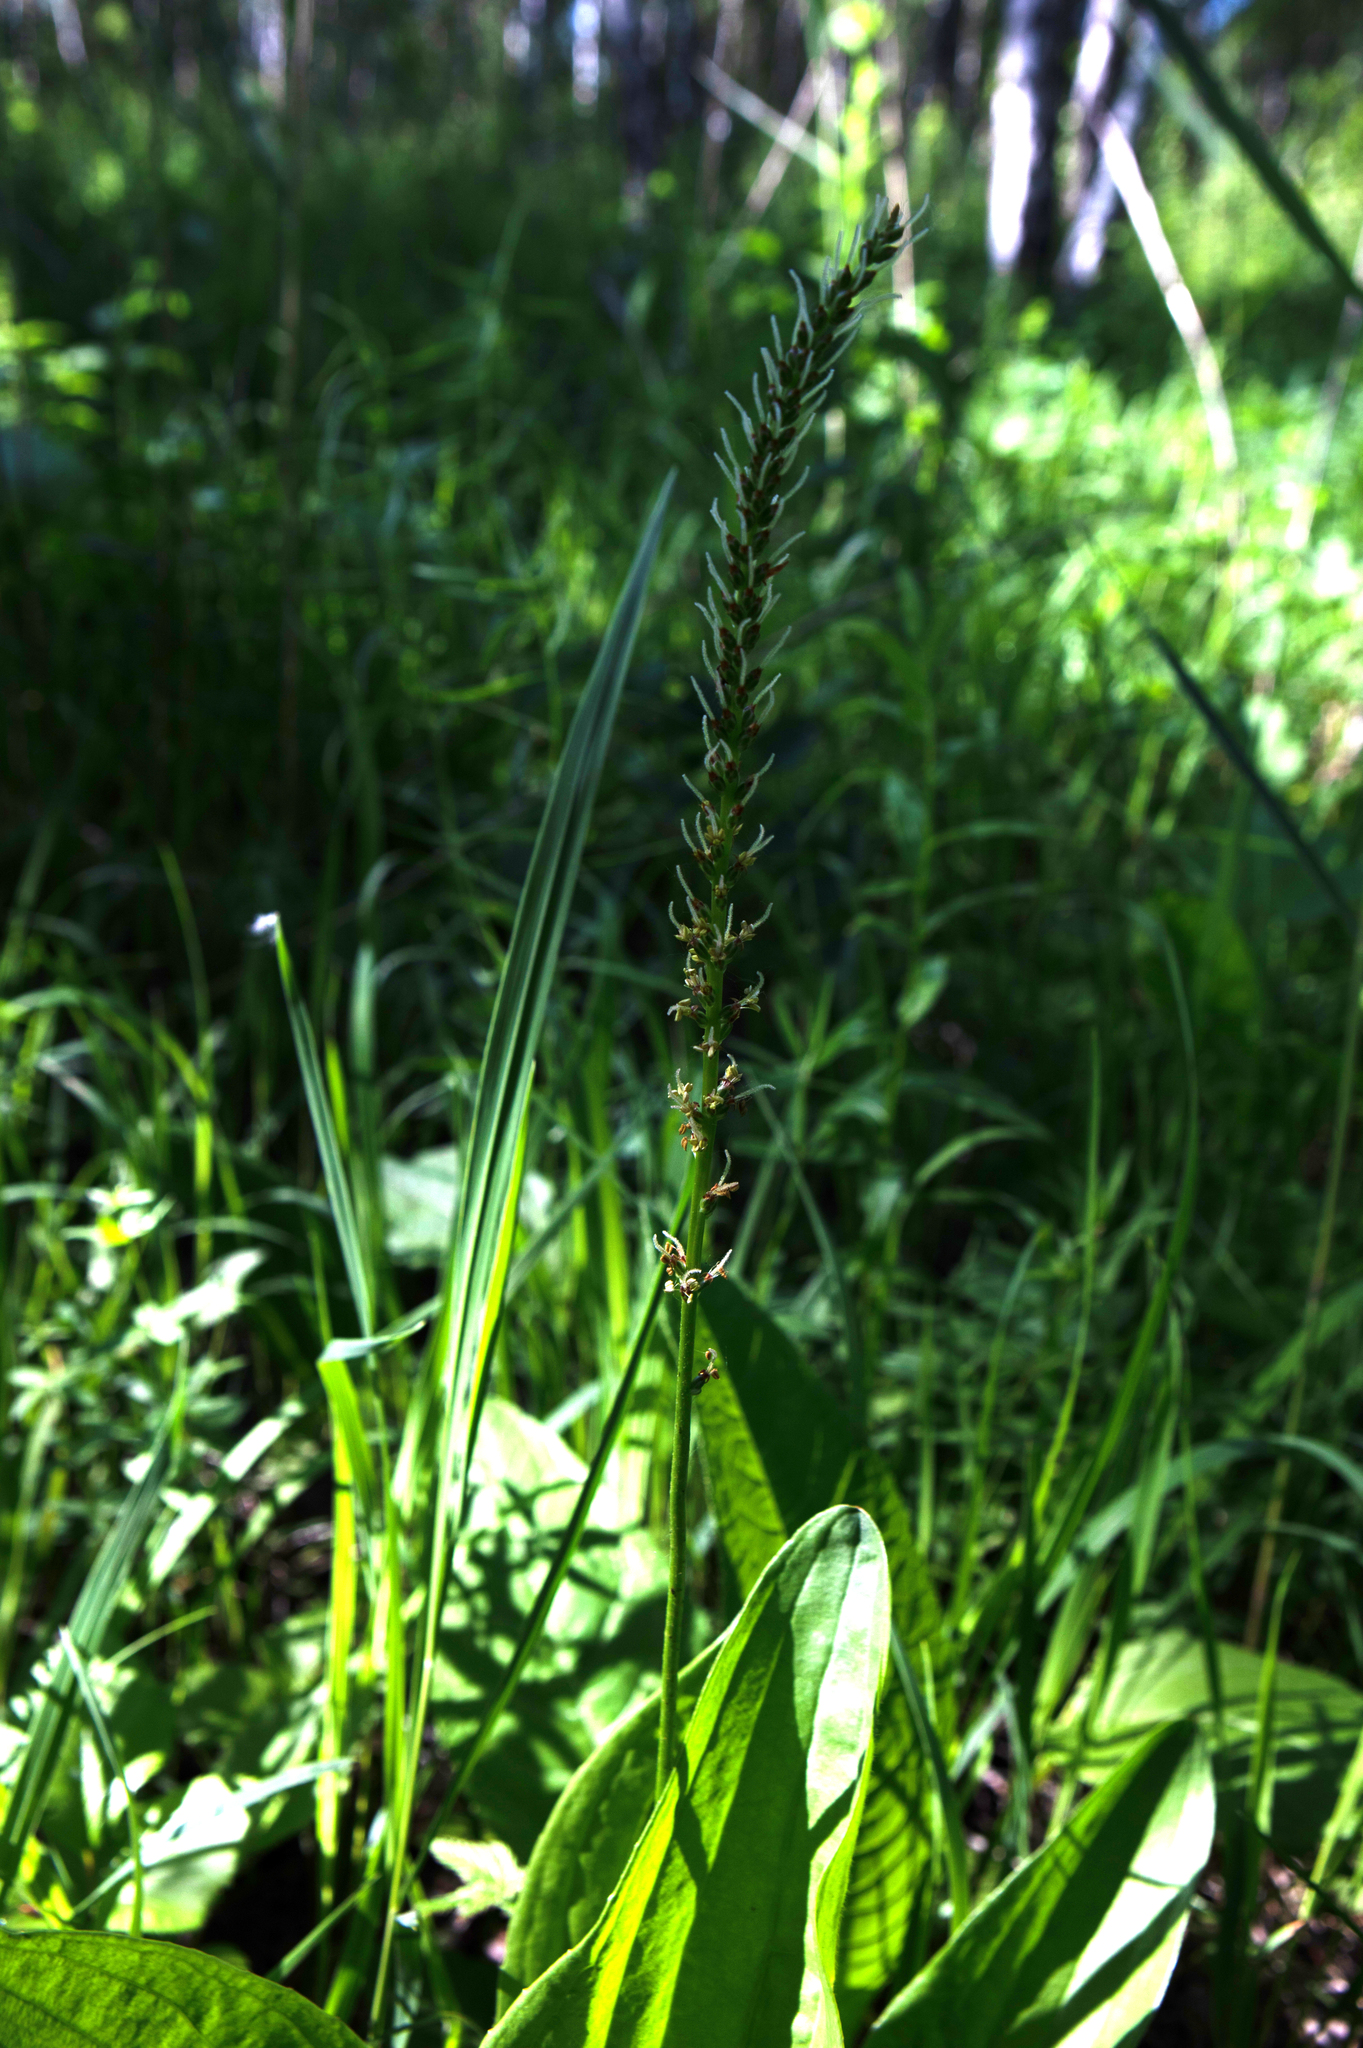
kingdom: Plantae
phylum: Tracheophyta
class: Magnoliopsida
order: Lamiales
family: Plantaginaceae
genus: Plantago
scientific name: Plantago cornuti
